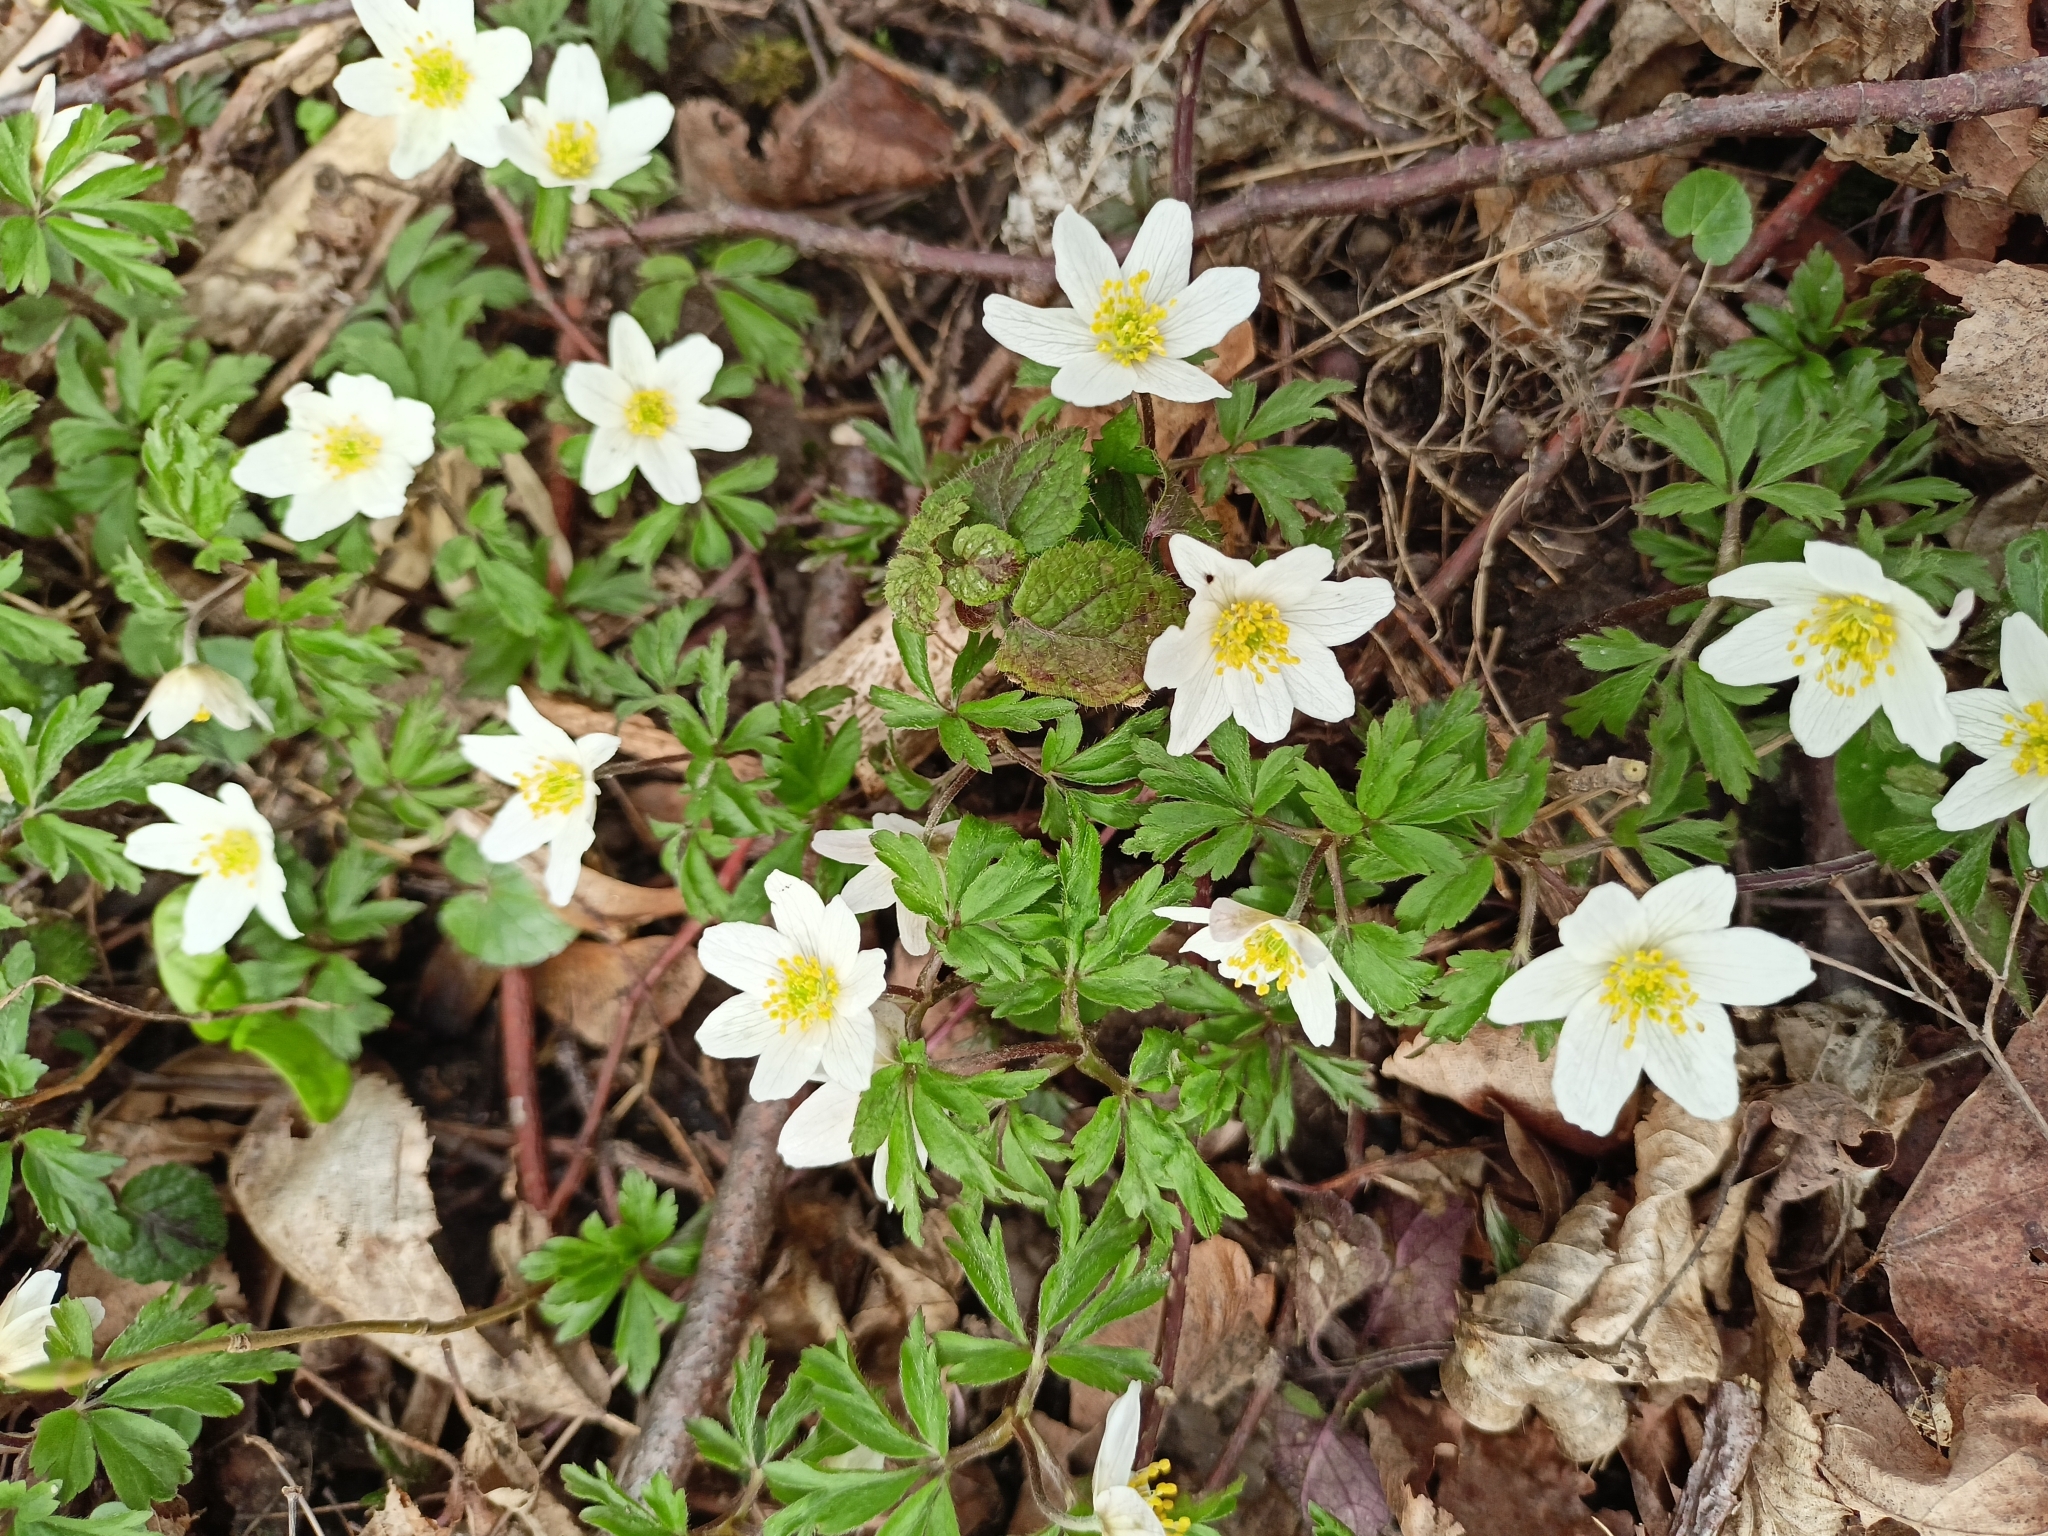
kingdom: Plantae
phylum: Tracheophyta
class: Magnoliopsida
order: Ranunculales
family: Ranunculaceae
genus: Anemone
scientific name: Anemone nemorosa
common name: Wood anemone
